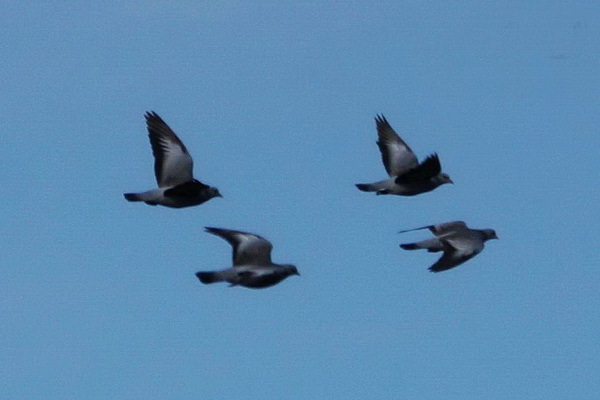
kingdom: Animalia
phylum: Chordata
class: Aves
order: Columbiformes
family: Columbidae
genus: Columba
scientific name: Columba oenas
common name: Stock dove
